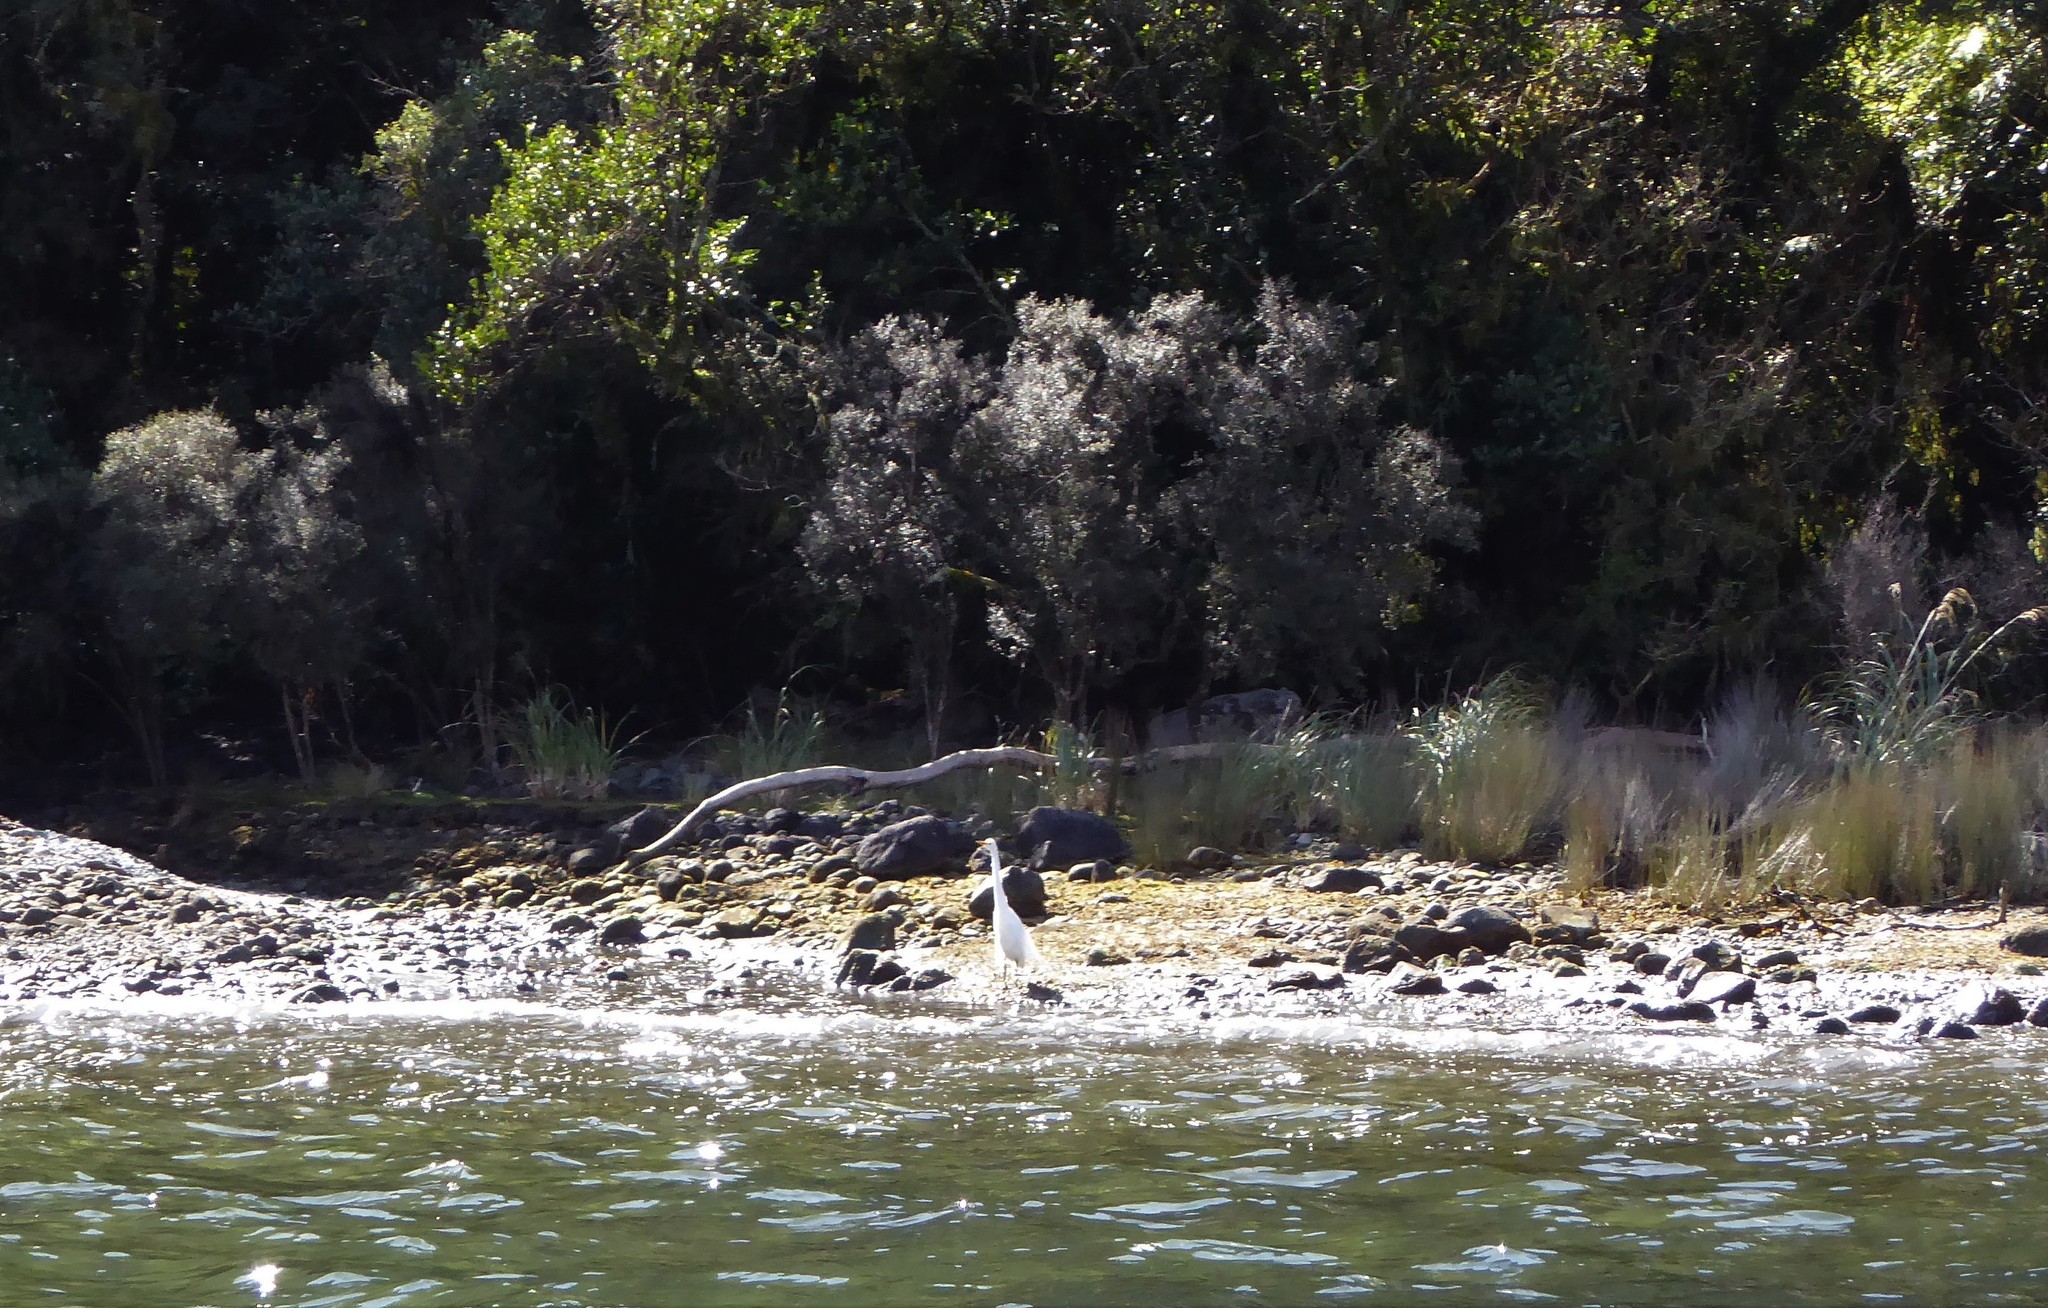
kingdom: Animalia
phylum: Chordata
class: Aves
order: Pelecaniformes
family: Ardeidae
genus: Ardea
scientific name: Ardea modesta
